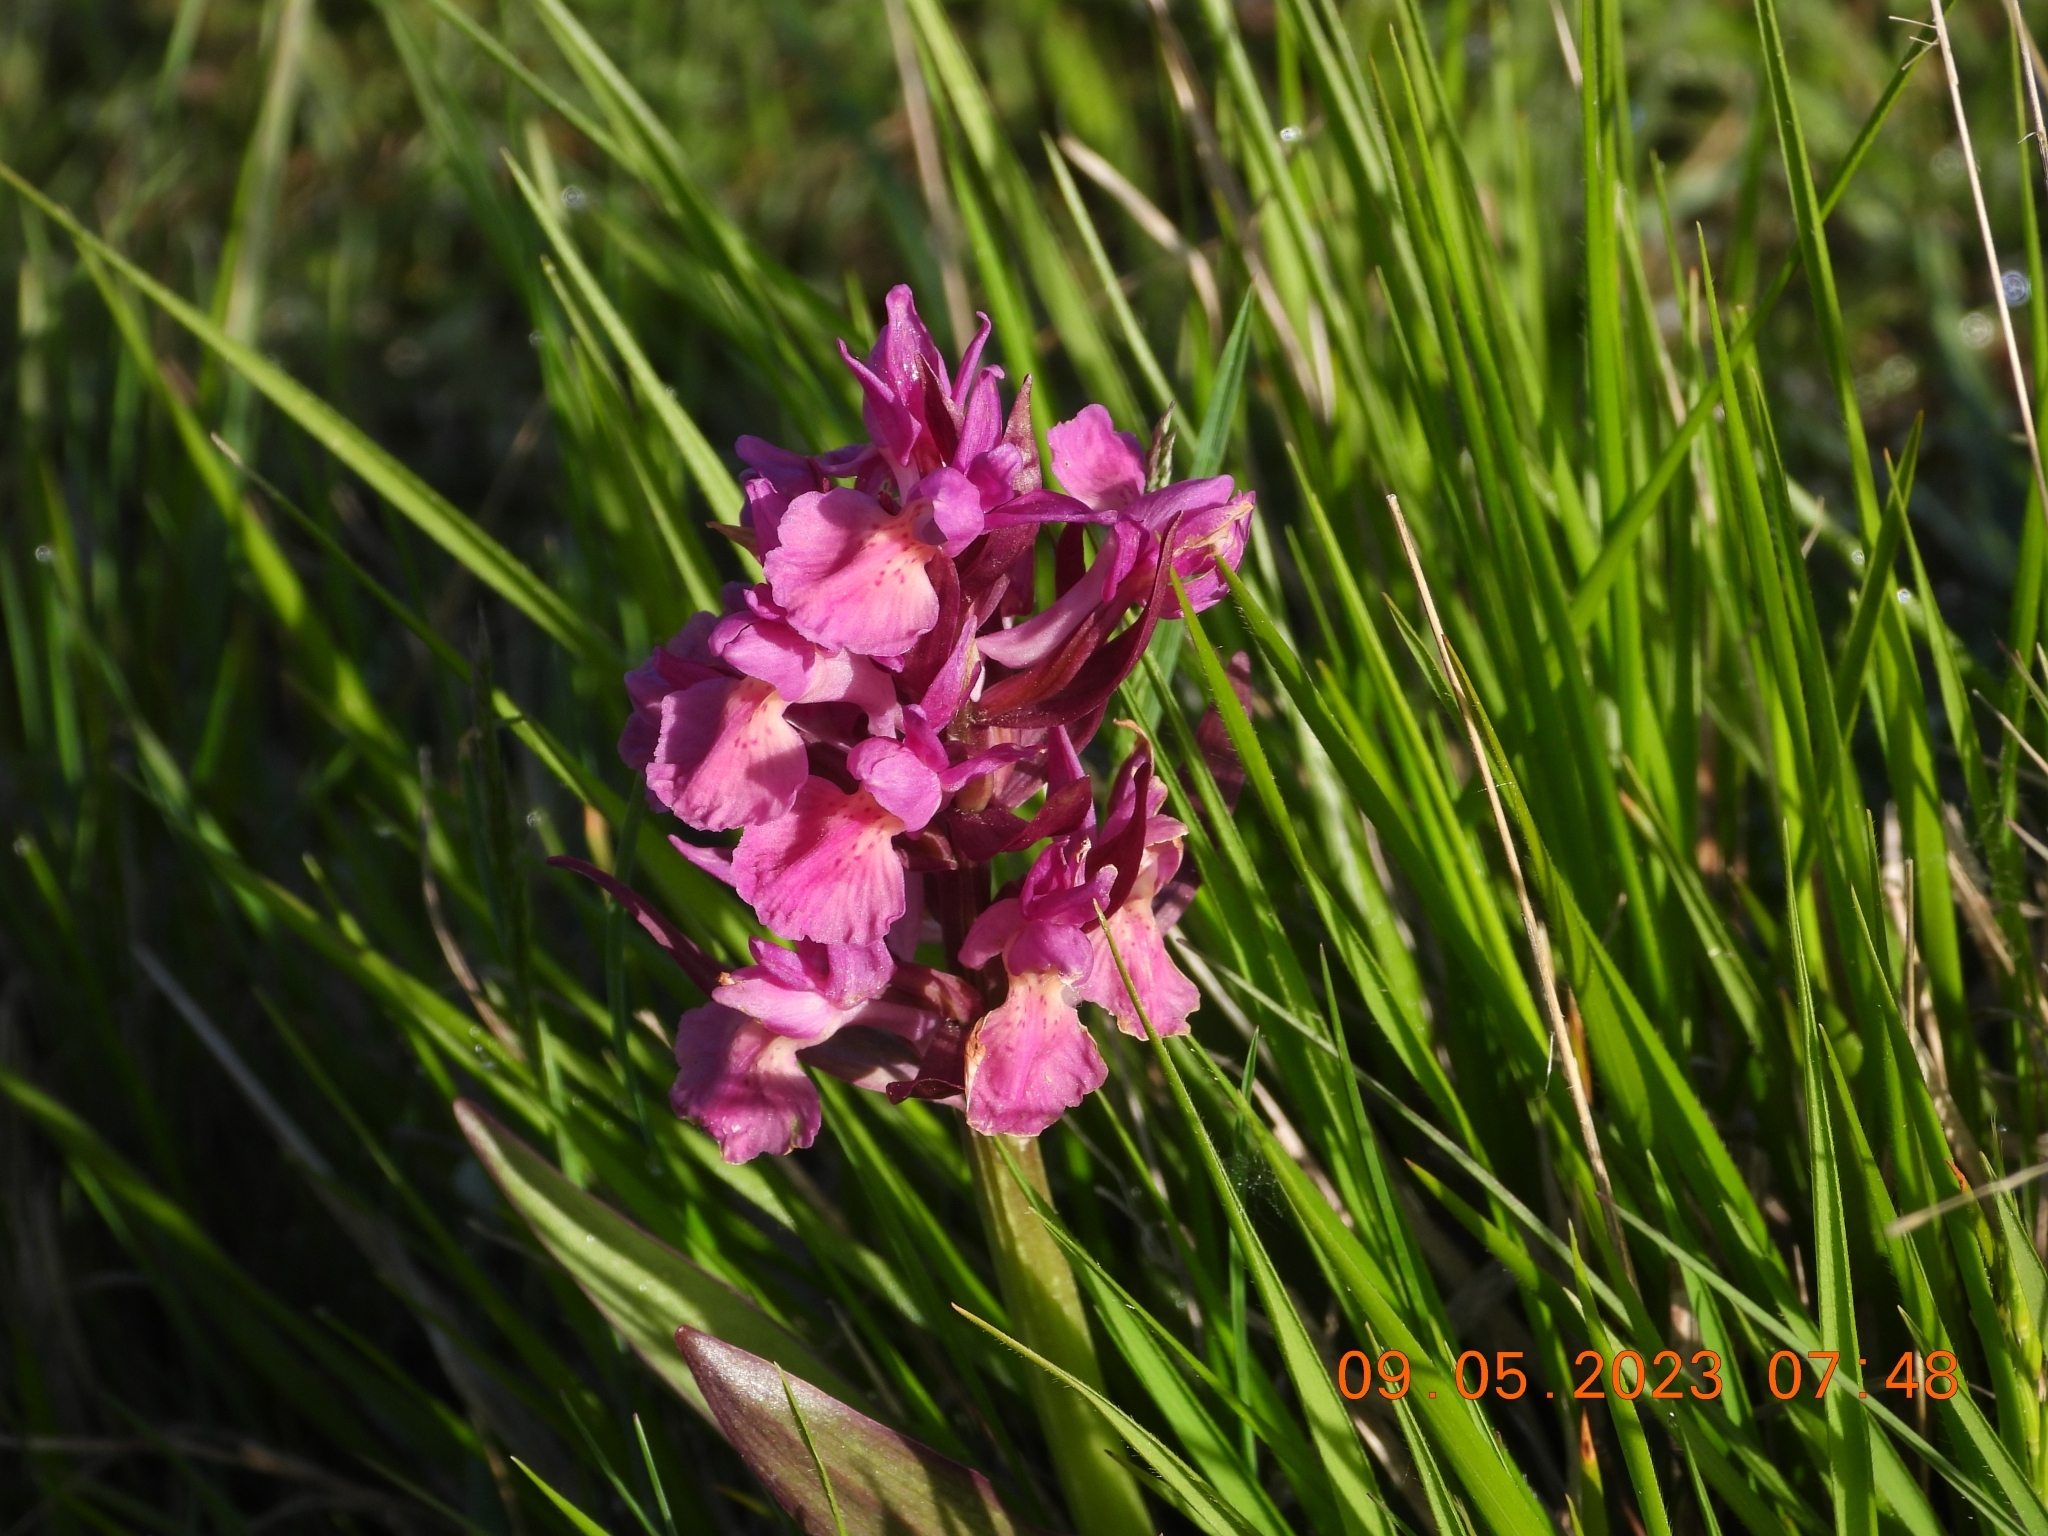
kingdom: Plantae
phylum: Tracheophyta
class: Liliopsida
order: Asparagales
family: Orchidaceae
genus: Dactylorhiza
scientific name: Dactylorhiza sambucina
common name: Elder-flowered orchid
